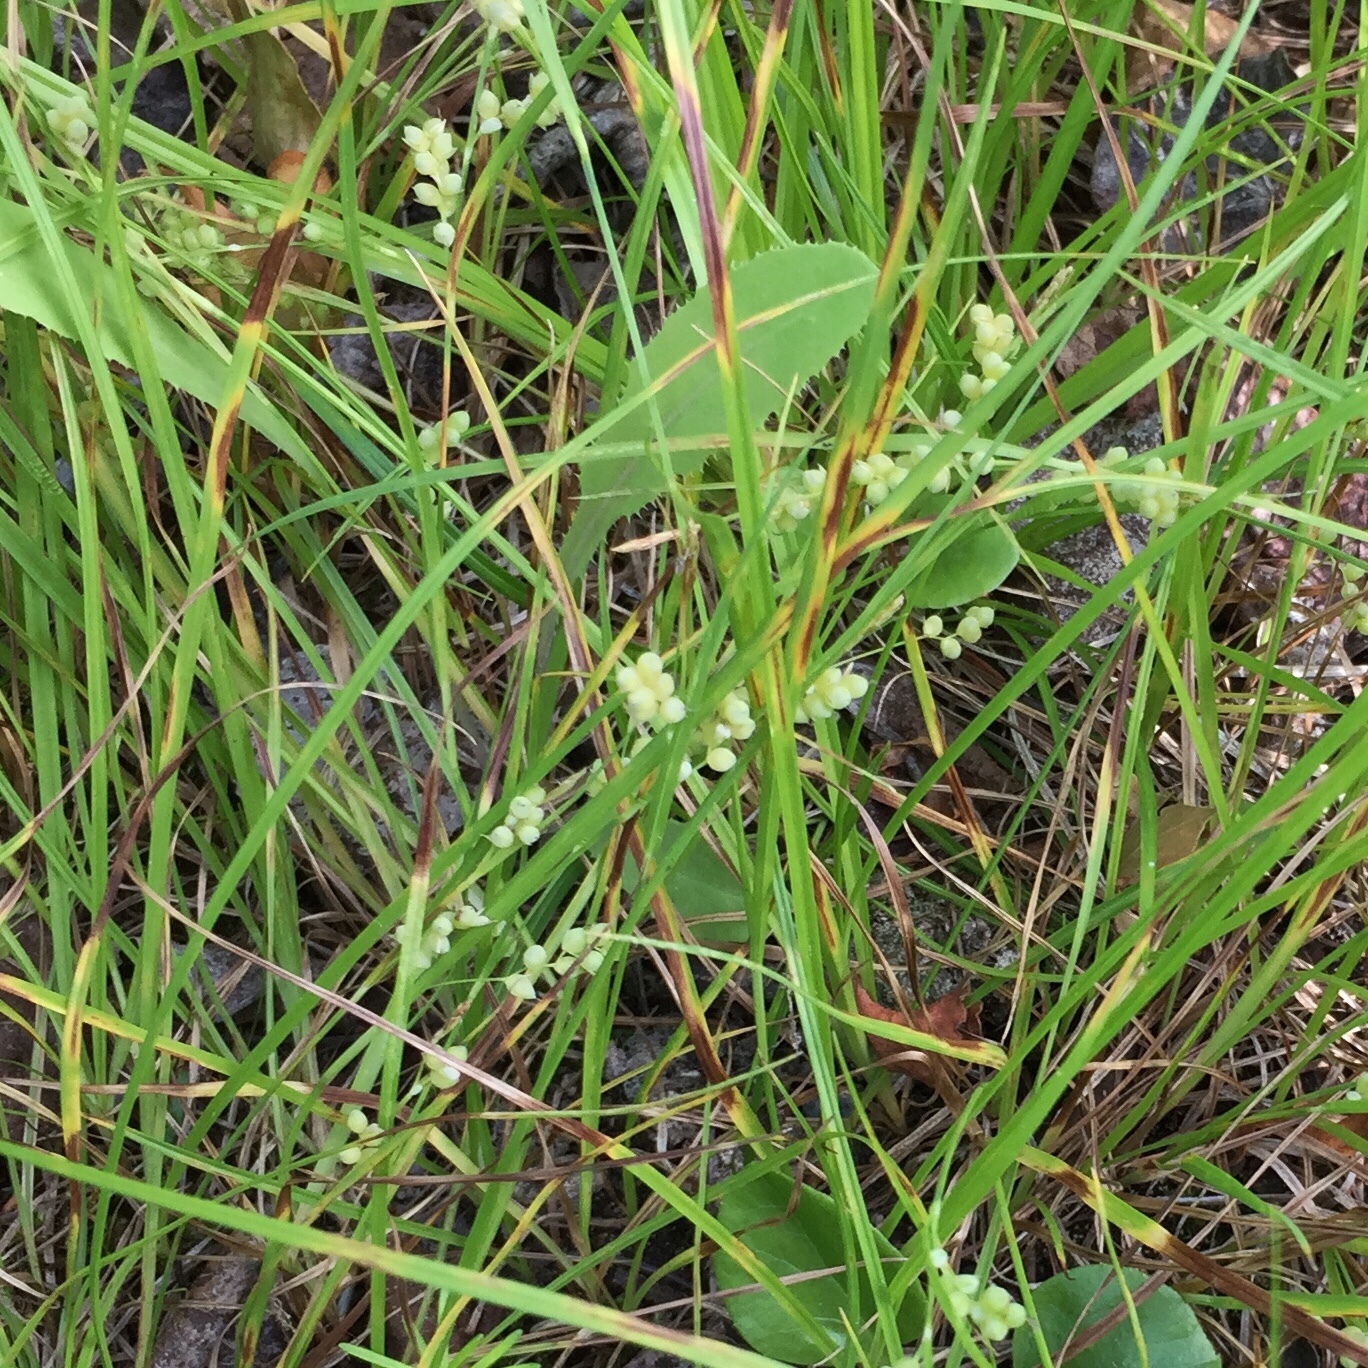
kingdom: Plantae
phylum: Tracheophyta
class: Liliopsida
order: Poales
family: Cyperaceae
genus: Carex
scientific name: Carex aurea
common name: Golden sedge
